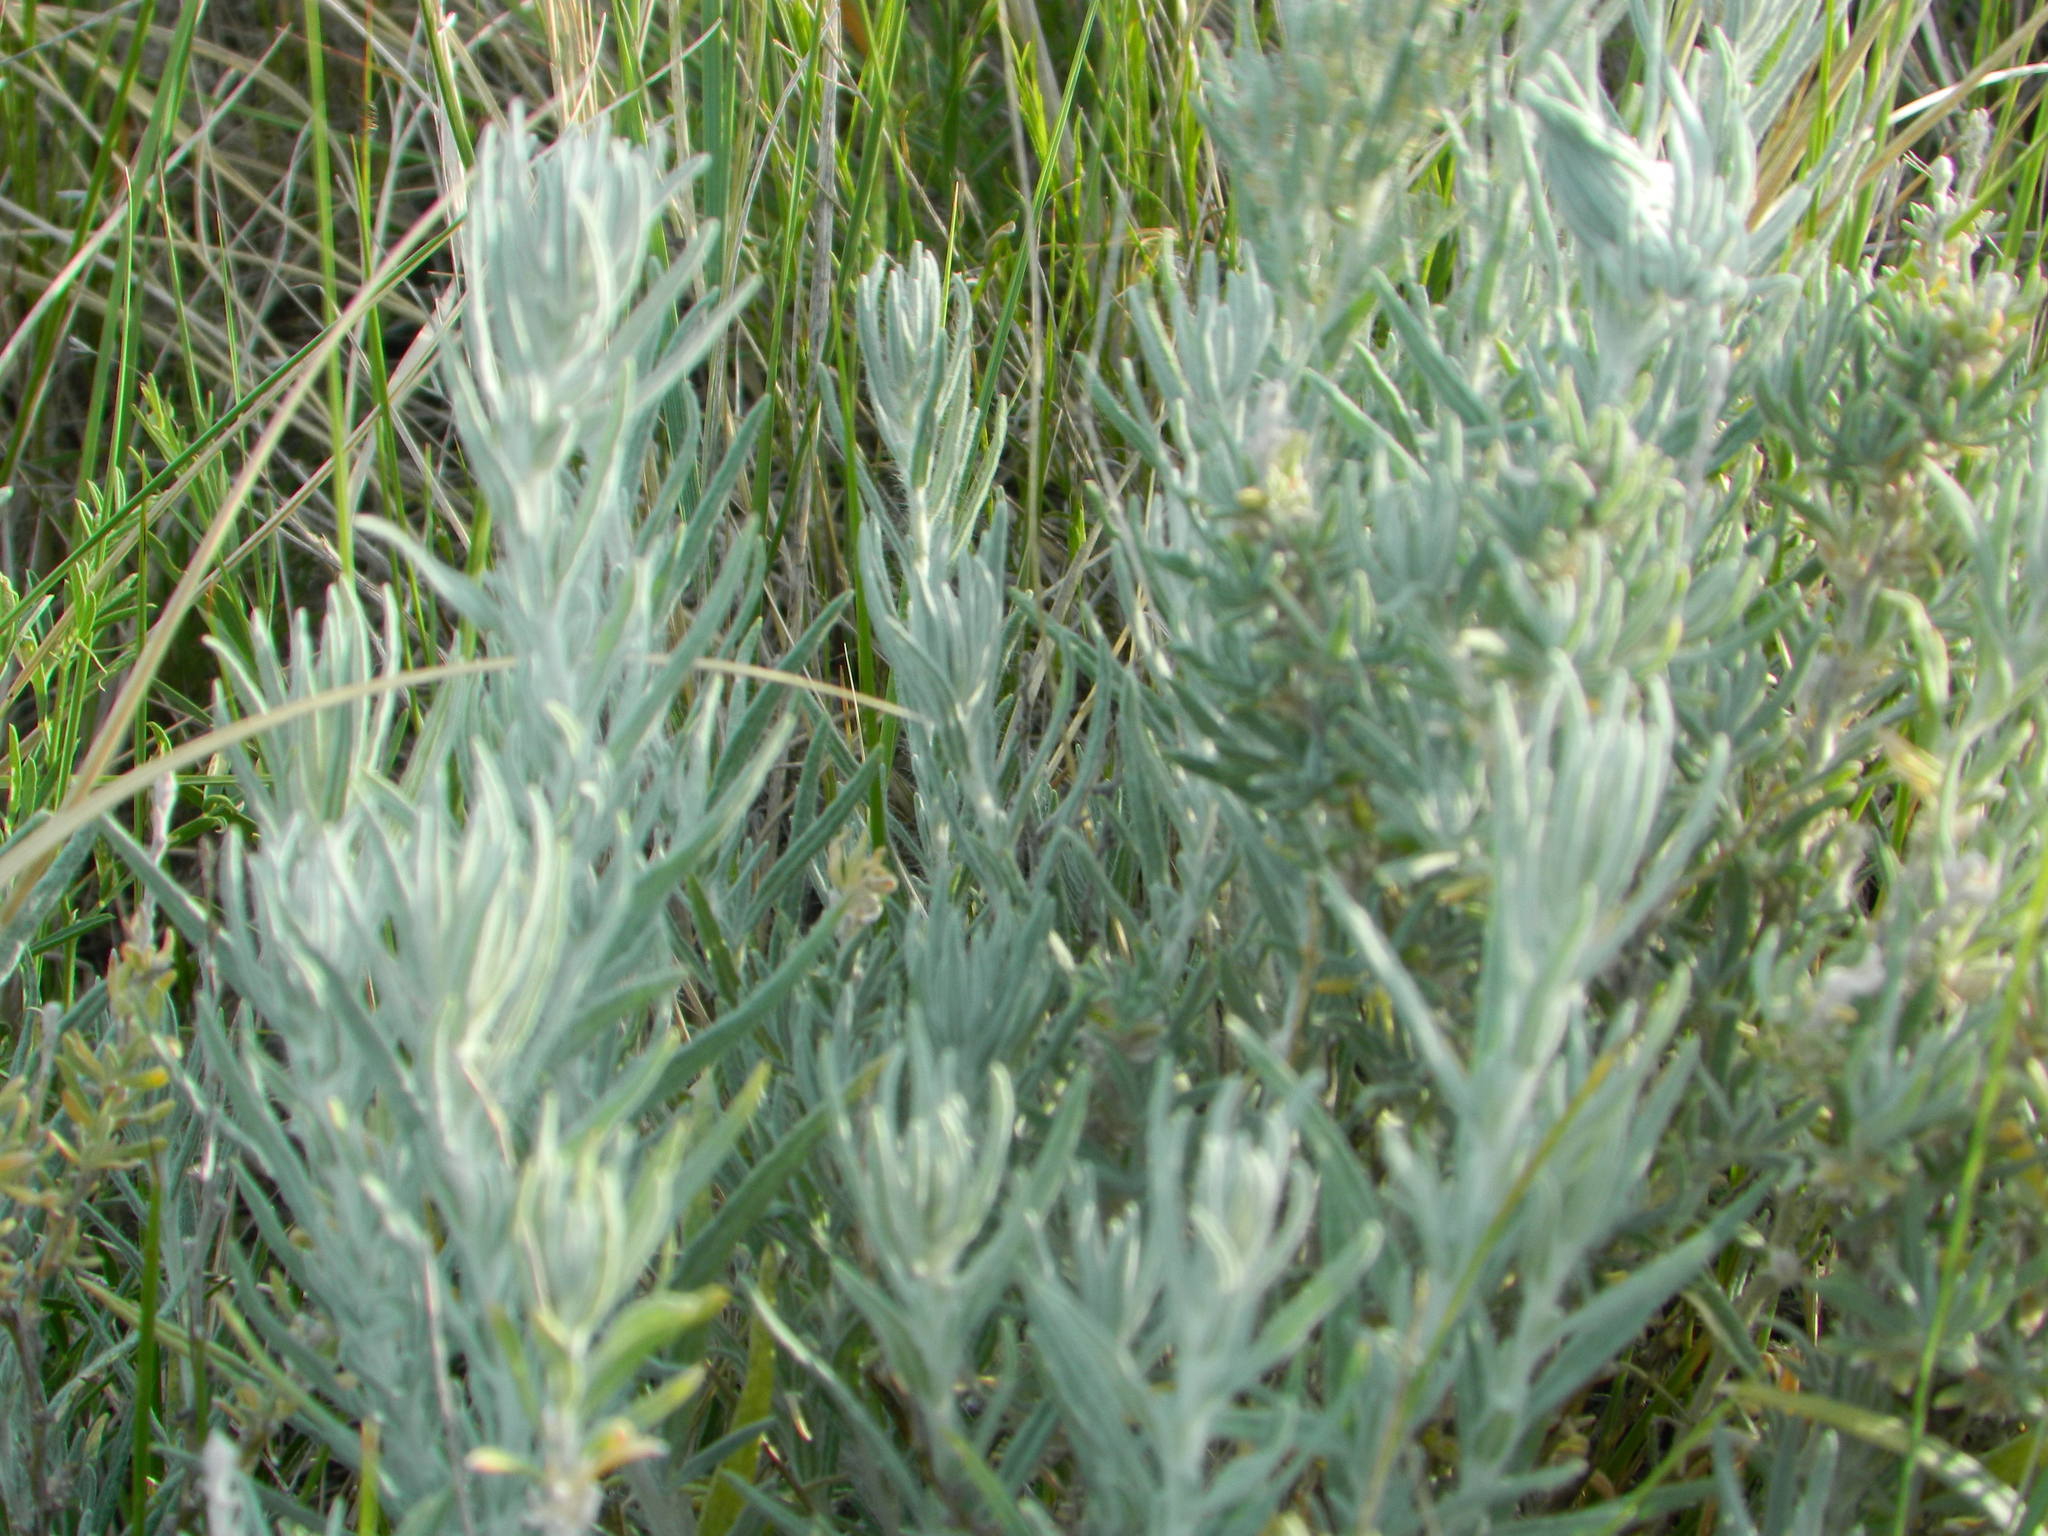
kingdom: Plantae
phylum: Tracheophyta
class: Magnoliopsida
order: Caryophyllales
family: Amaranthaceae
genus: Krascheninnikovia
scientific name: Krascheninnikovia lanata
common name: Winterfat
